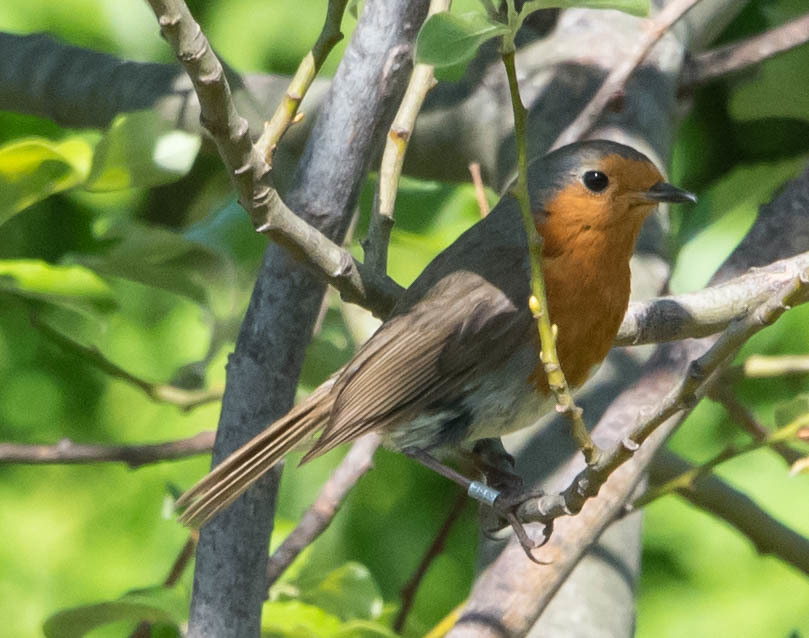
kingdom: Animalia
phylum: Chordata
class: Aves
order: Passeriformes
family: Muscicapidae
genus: Erithacus
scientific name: Erithacus rubecula
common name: European robin
